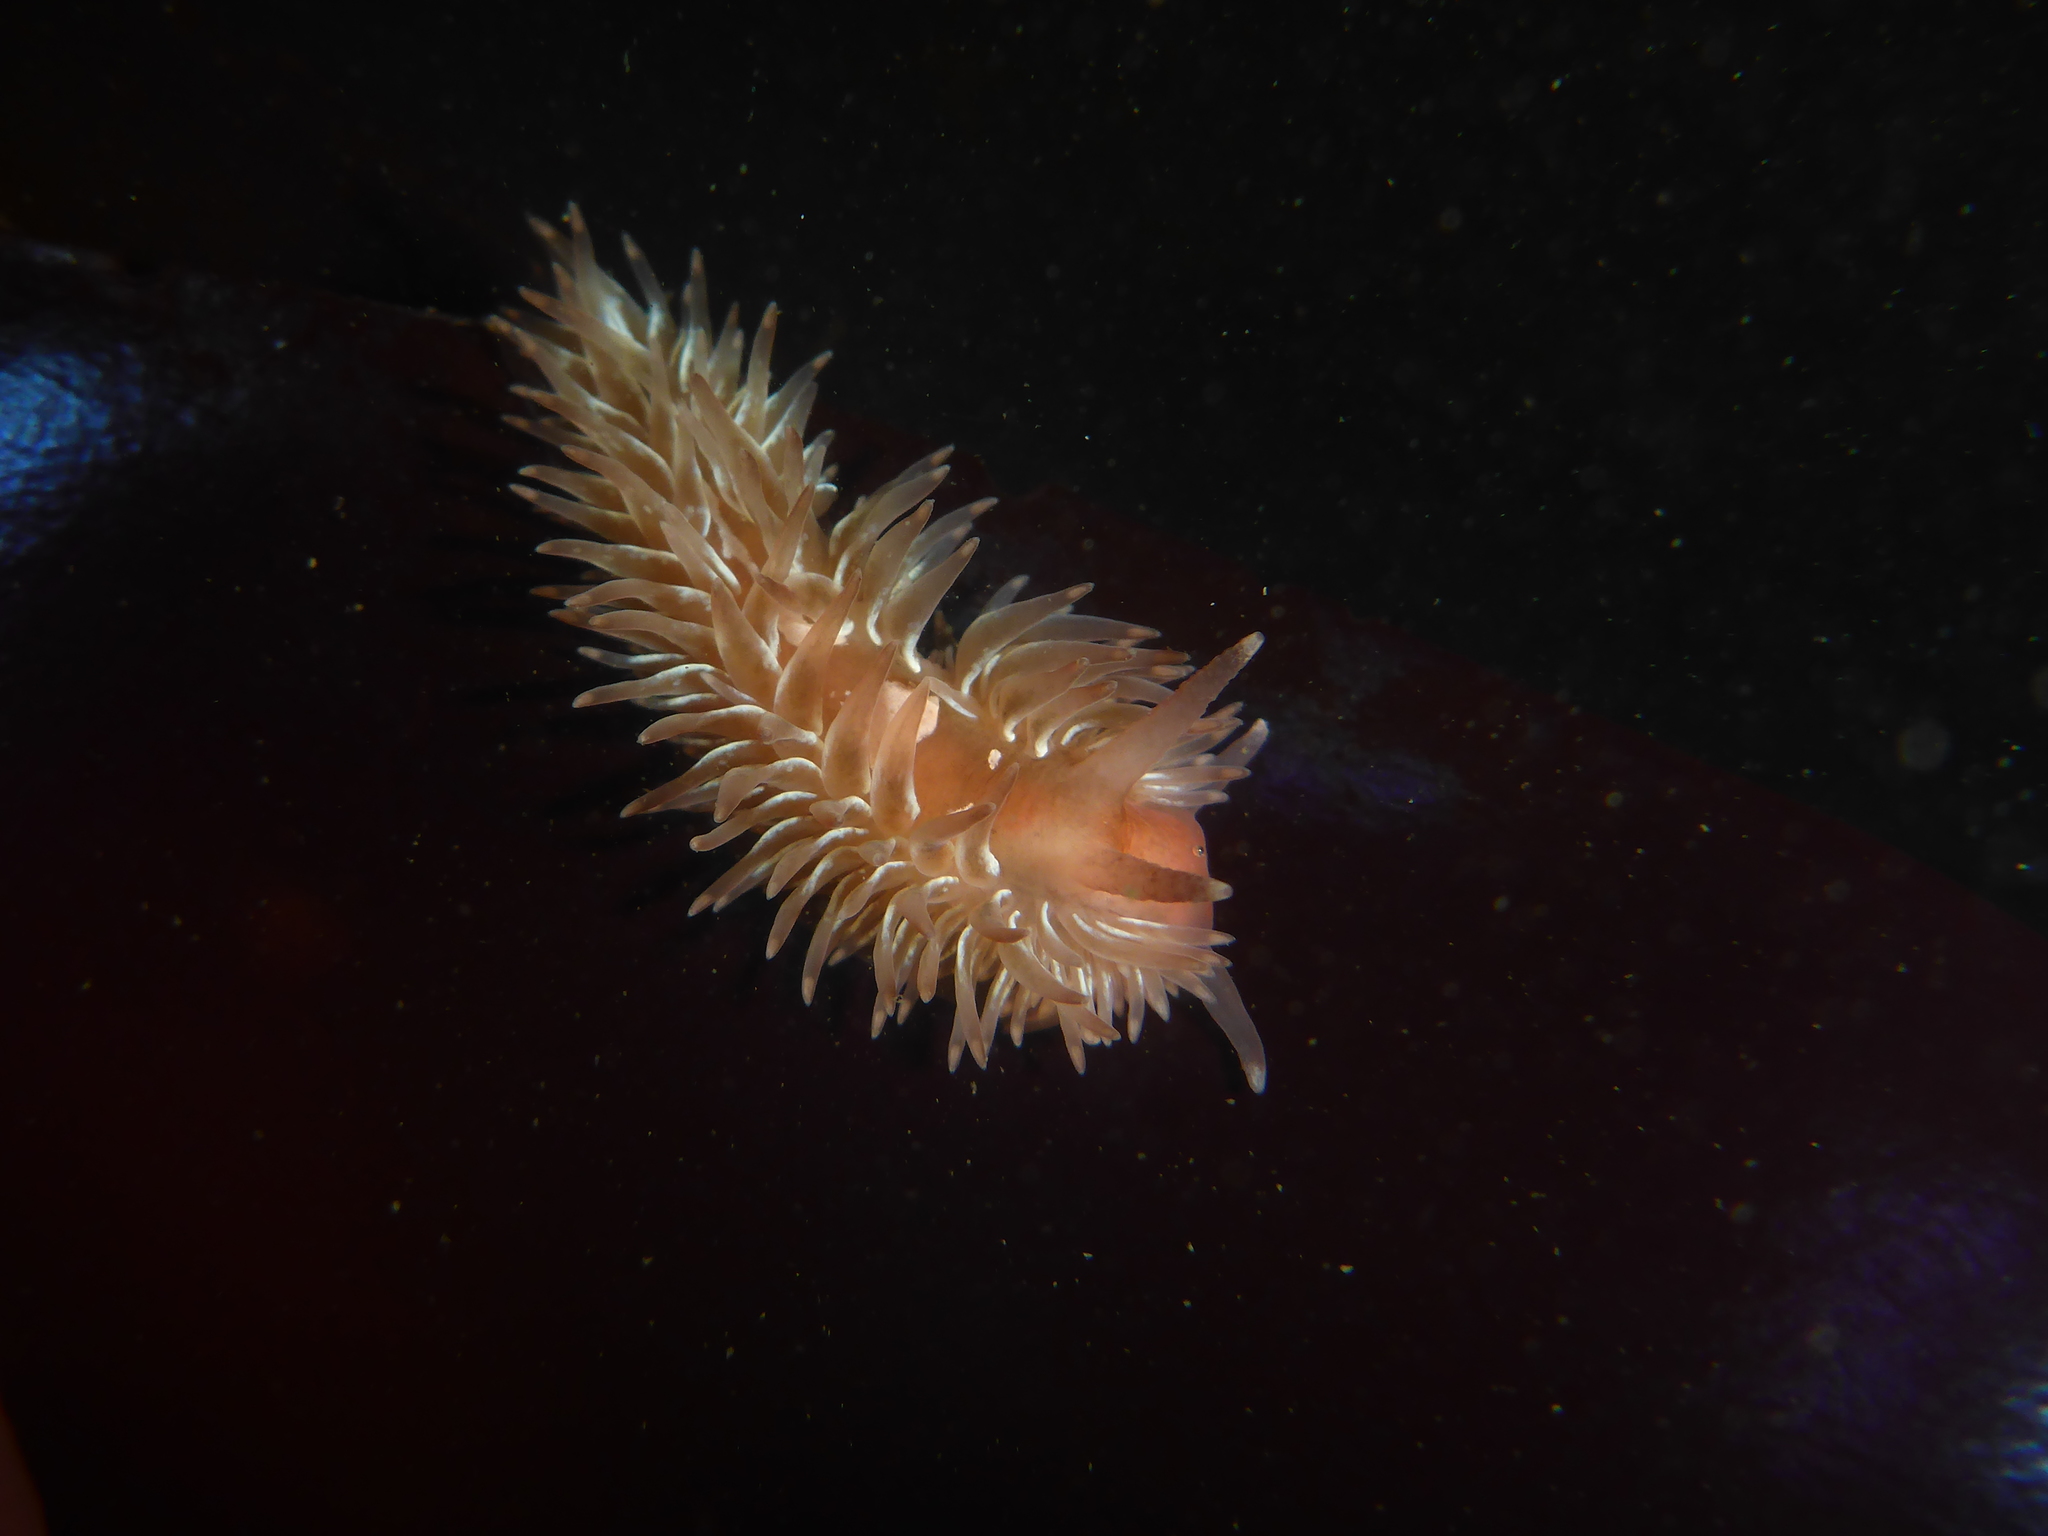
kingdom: Animalia
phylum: Mollusca
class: Gastropoda
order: Nudibranchia
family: Aeolidiidae
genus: Aeolidia
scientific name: Aeolidia loui
